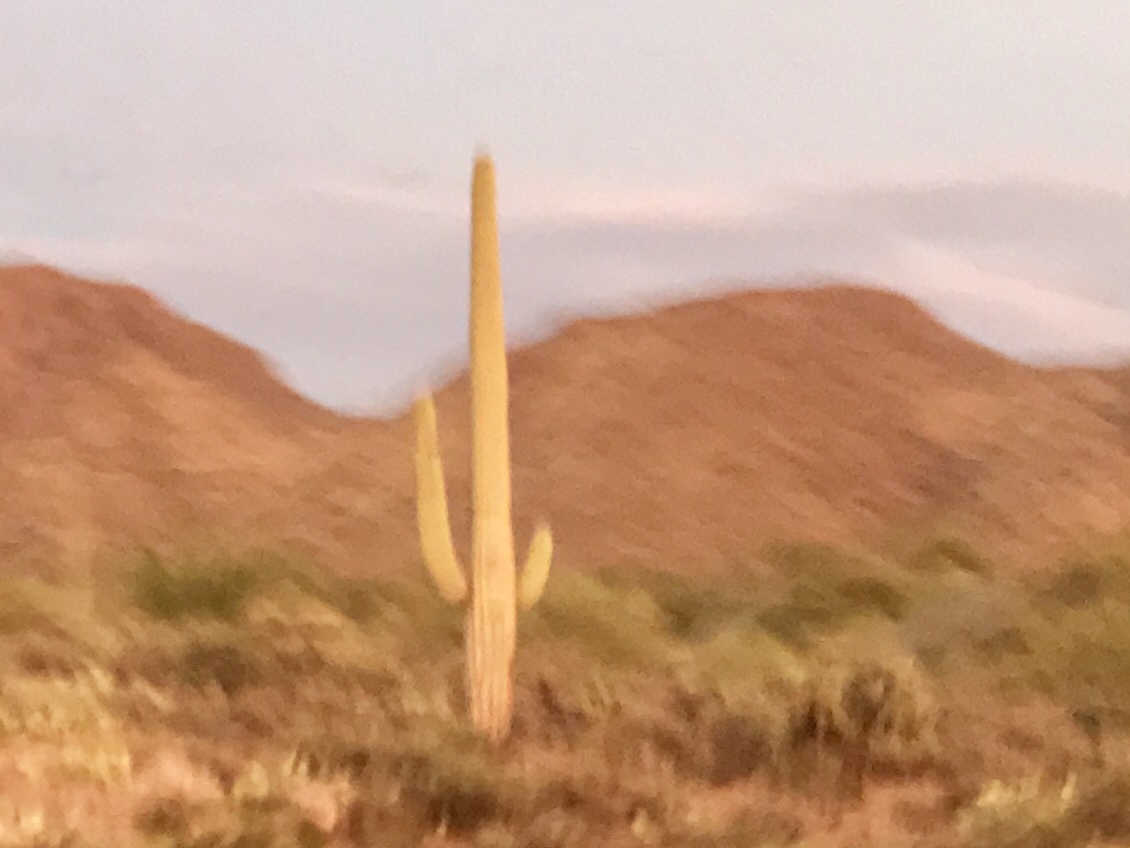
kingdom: Plantae
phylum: Tracheophyta
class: Magnoliopsida
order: Caryophyllales
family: Cactaceae
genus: Carnegiea
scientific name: Carnegiea gigantea
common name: Saguaro
